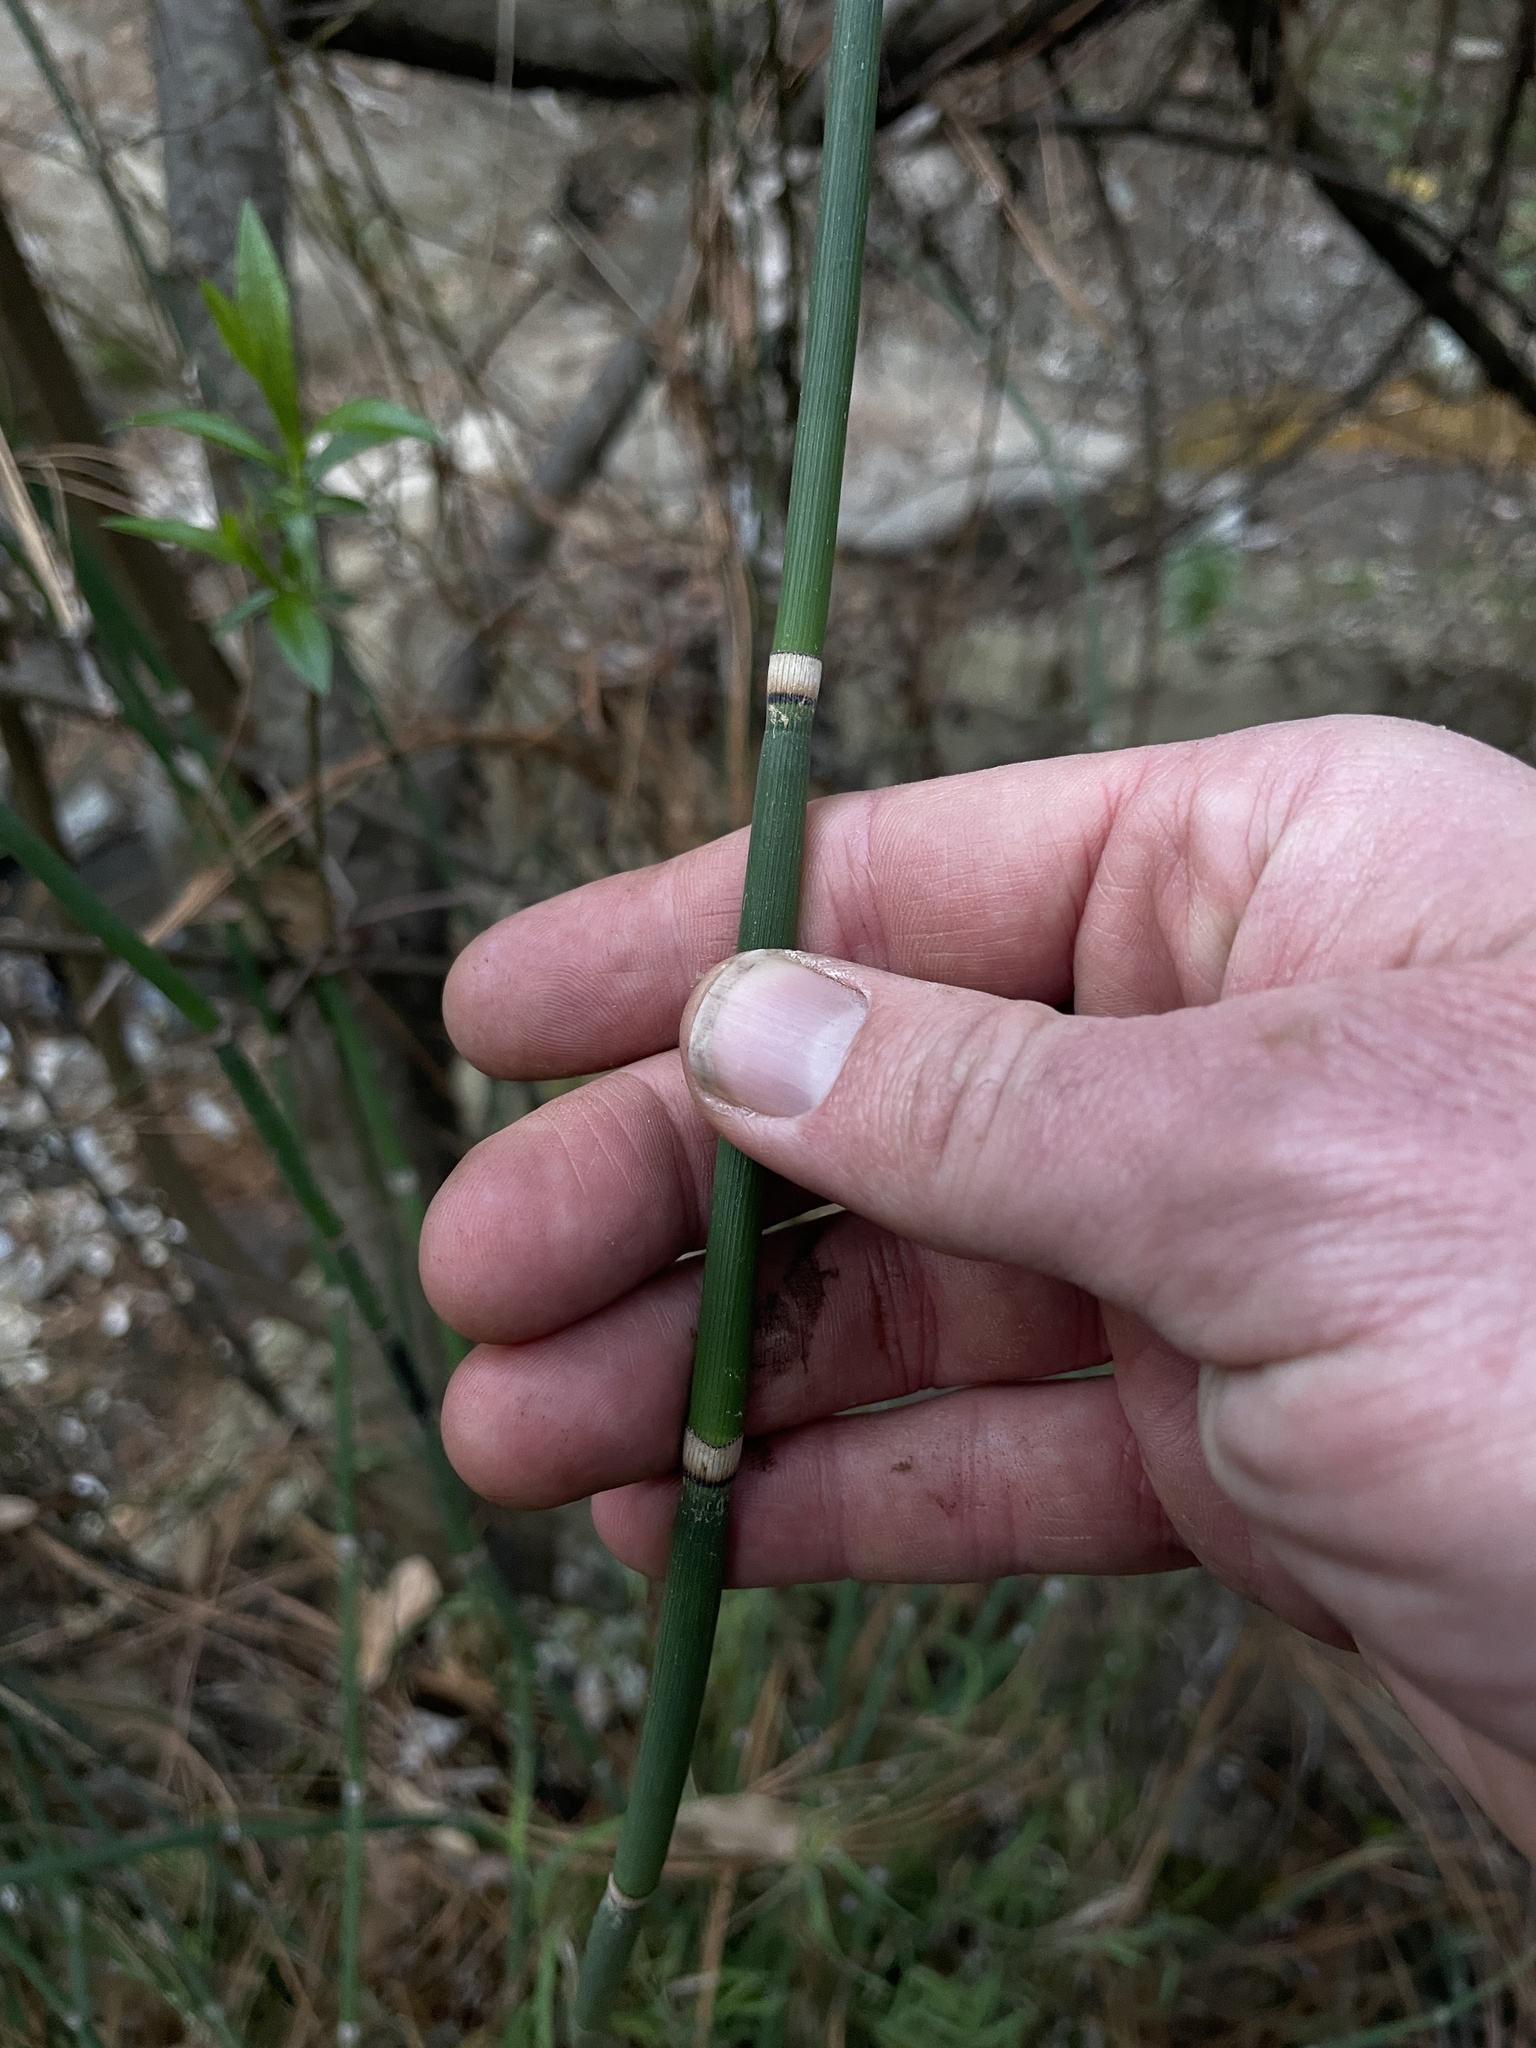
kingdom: Plantae
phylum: Tracheophyta
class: Polypodiopsida
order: Equisetales
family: Equisetaceae
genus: Equisetum
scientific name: Equisetum praealtum
